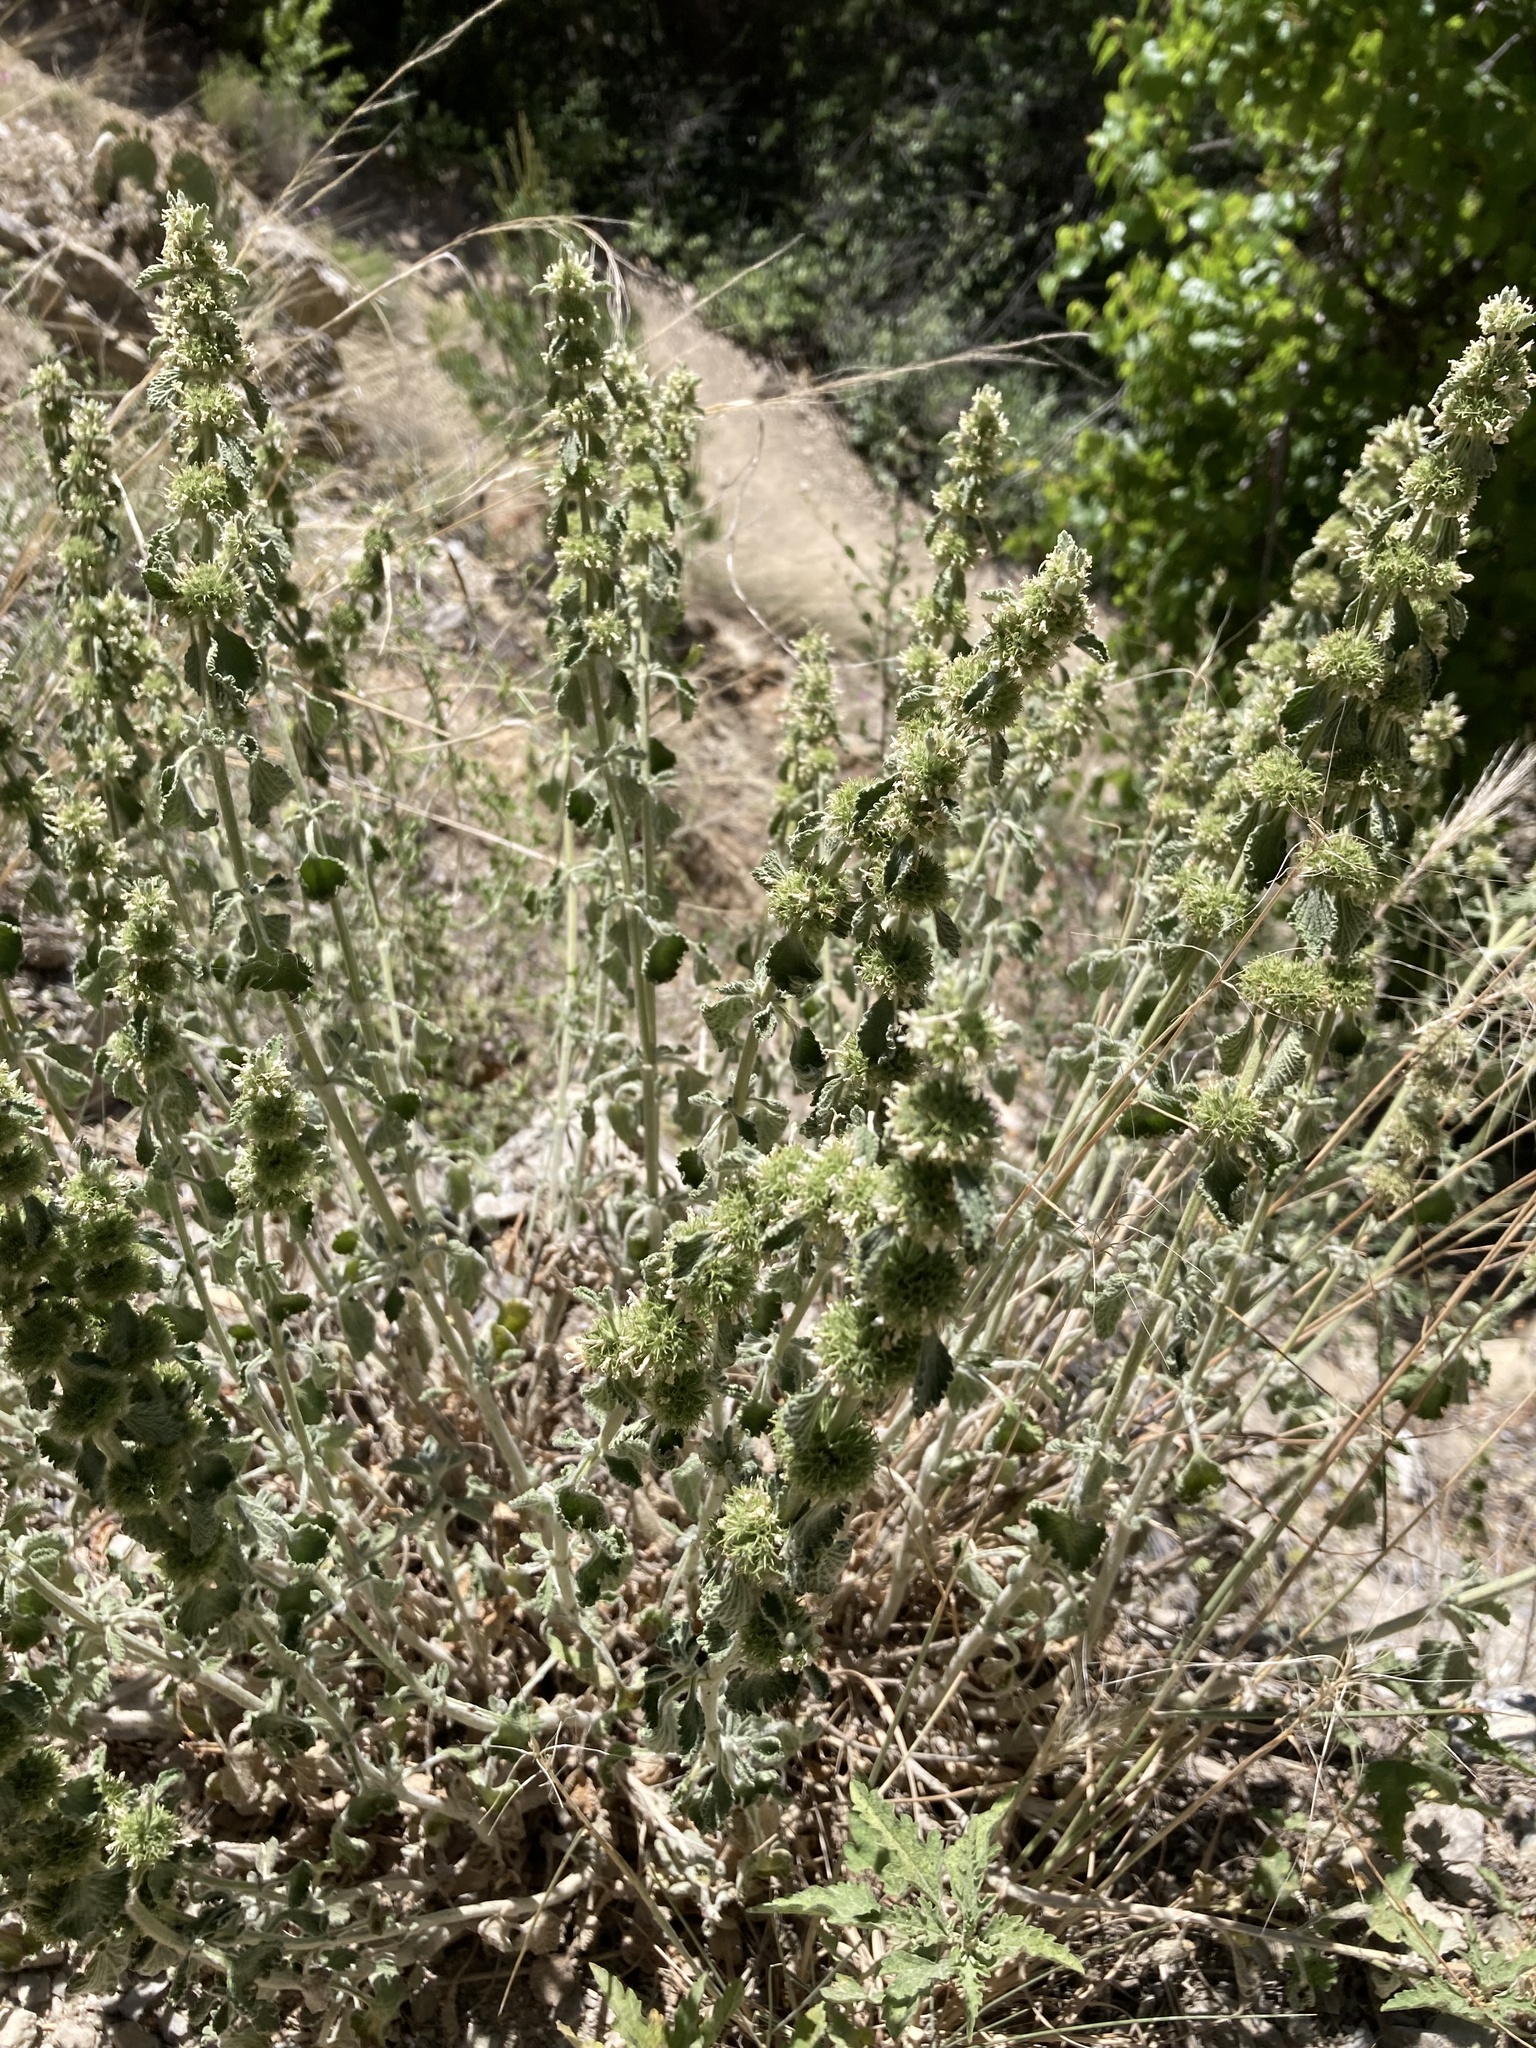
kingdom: Plantae
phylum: Tracheophyta
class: Magnoliopsida
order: Lamiales
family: Lamiaceae
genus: Marrubium
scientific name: Marrubium vulgare
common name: Horehound
